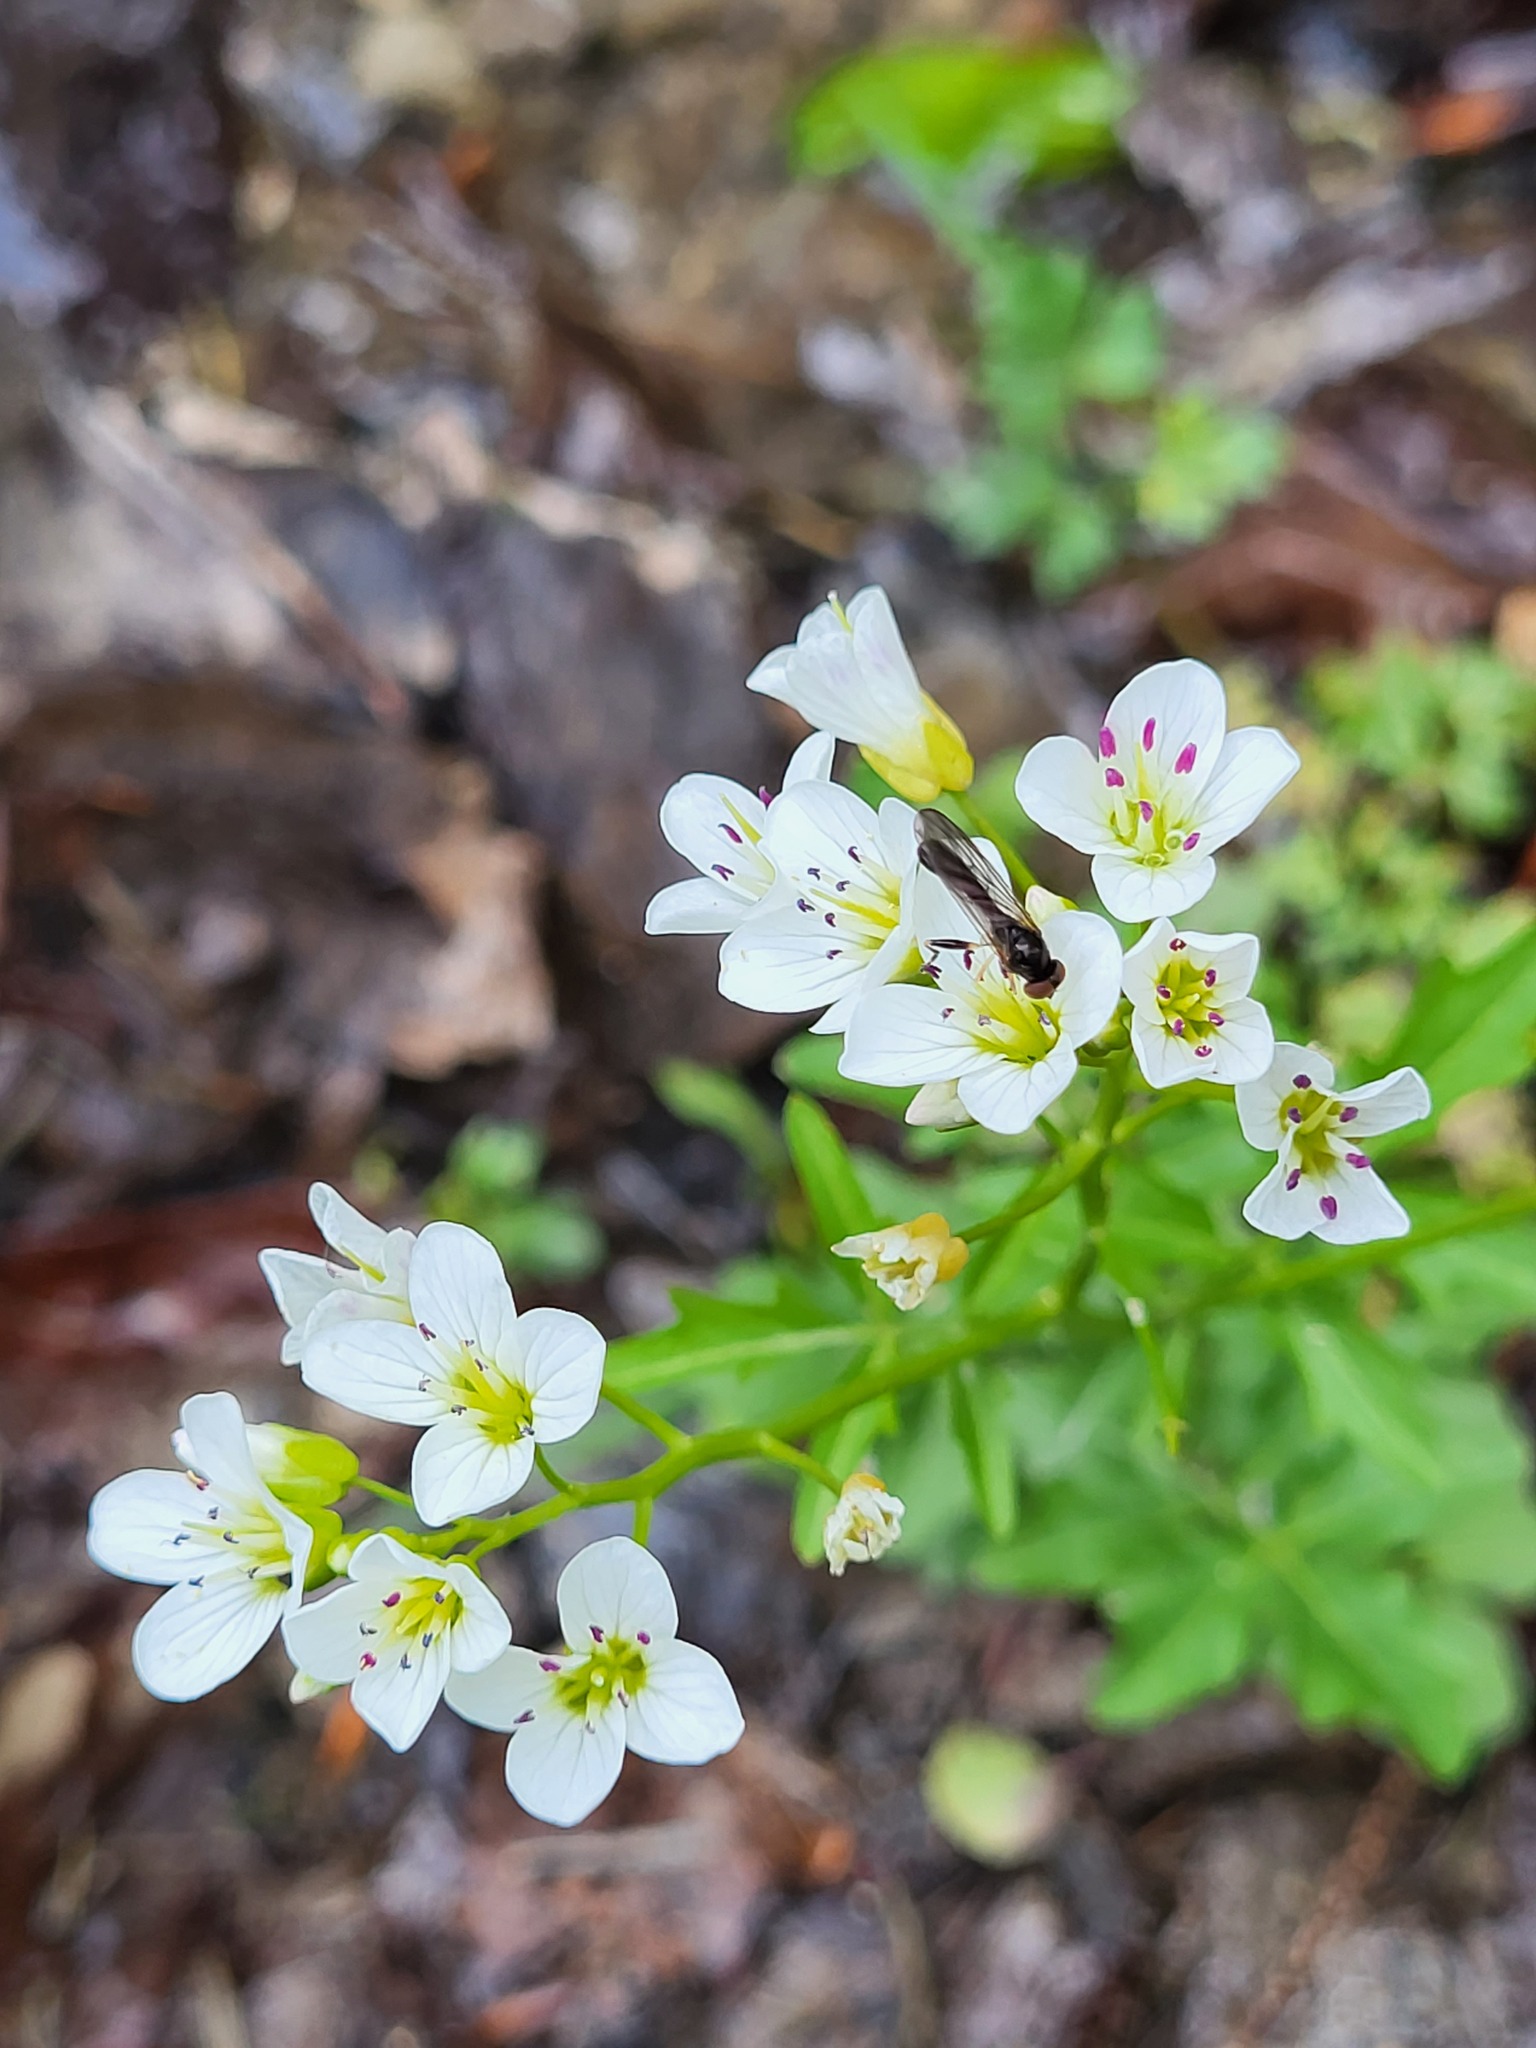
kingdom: Plantae
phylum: Tracheophyta
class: Magnoliopsida
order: Brassicales
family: Brassicaceae
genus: Cardamine
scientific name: Cardamine amara
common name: Large bitter-cress
